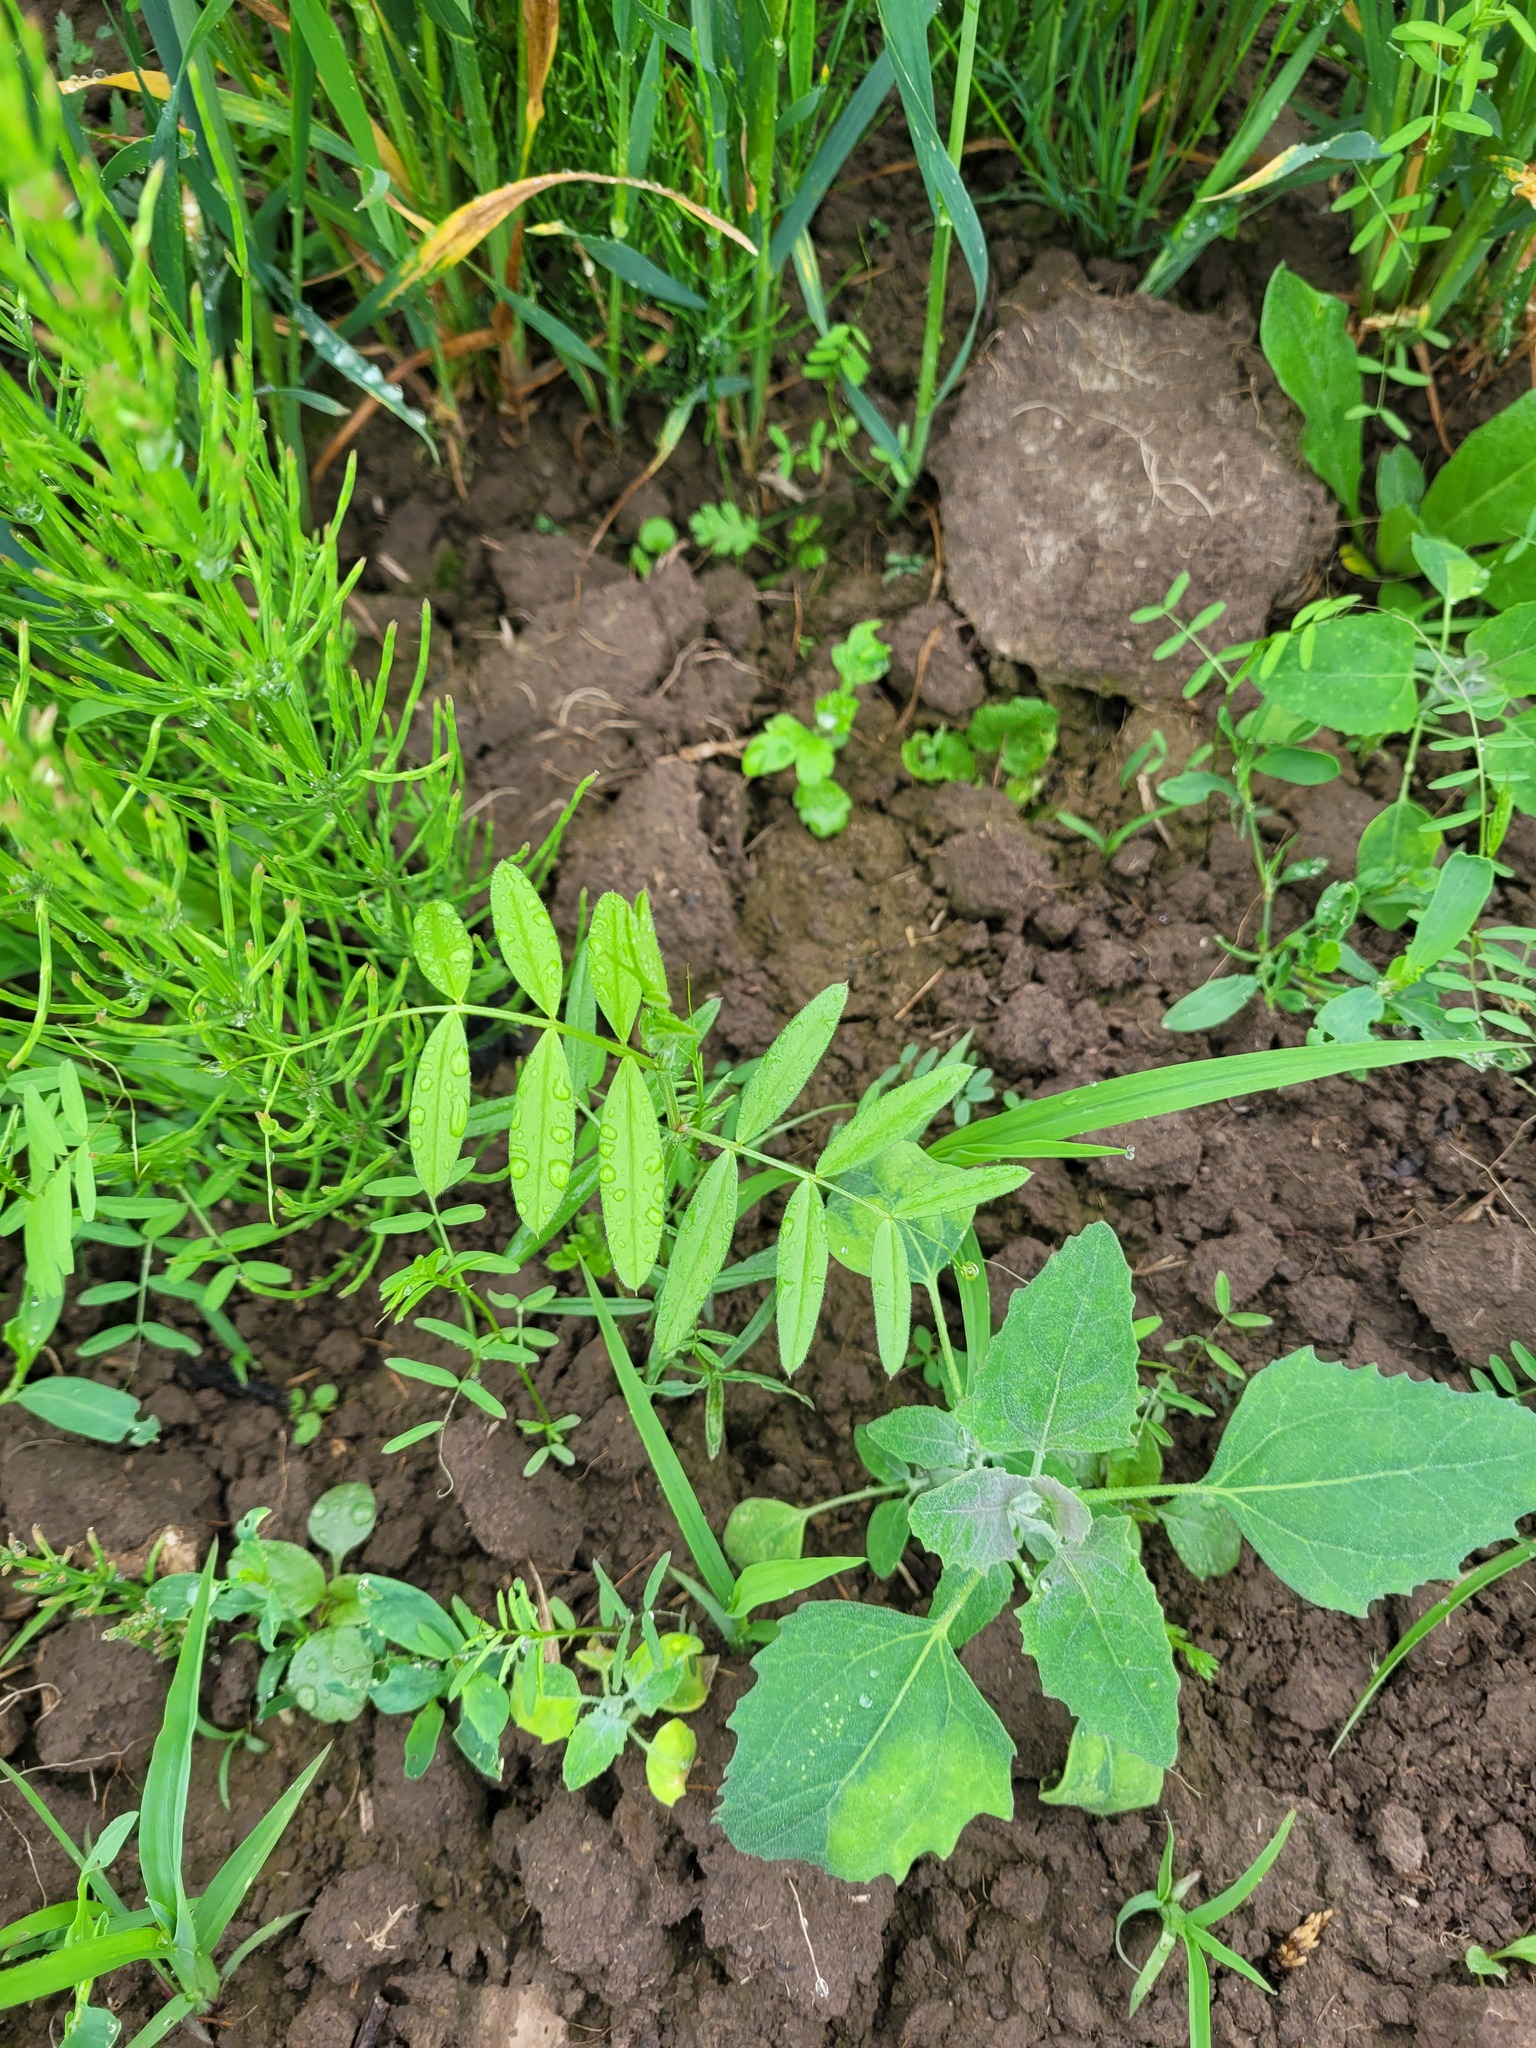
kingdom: Plantae
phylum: Tracheophyta
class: Magnoliopsida
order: Fabales
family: Fabaceae
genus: Vicia
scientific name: Vicia sativa
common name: Garden vetch
